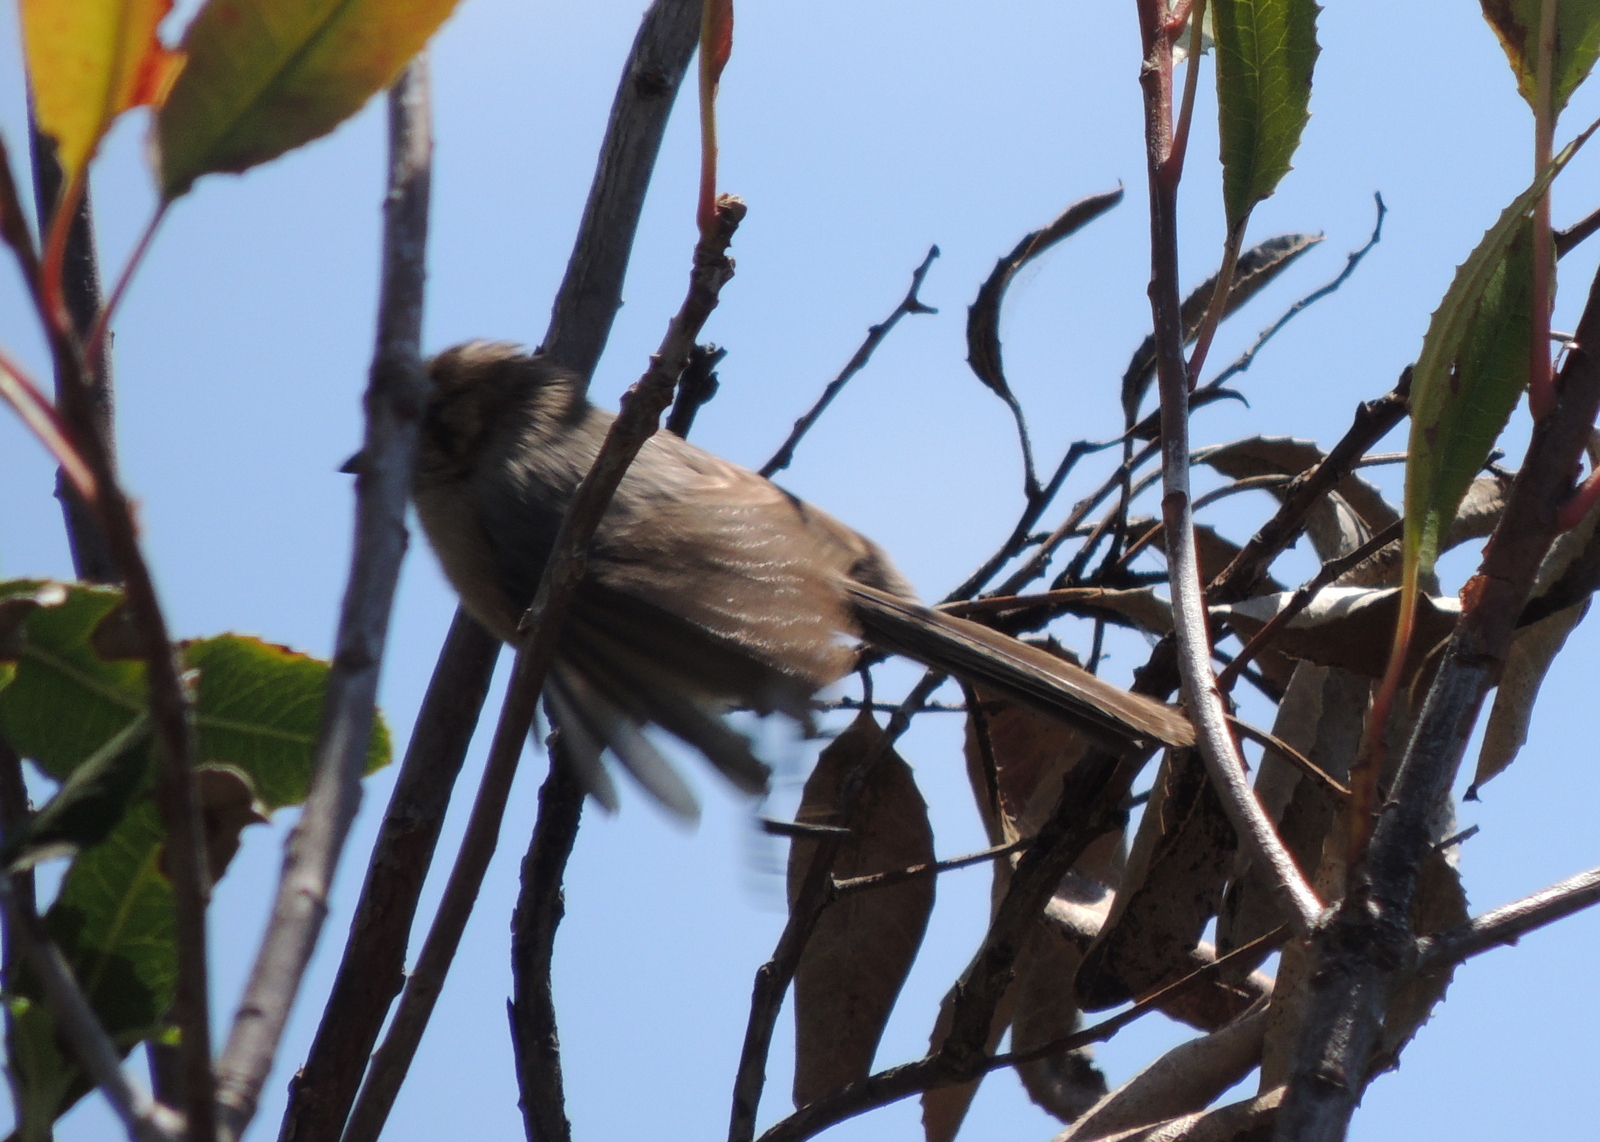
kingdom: Animalia
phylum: Chordata
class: Aves
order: Passeriformes
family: Aegithalidae
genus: Psaltriparus
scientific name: Psaltriparus minimus
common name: American bushtit
